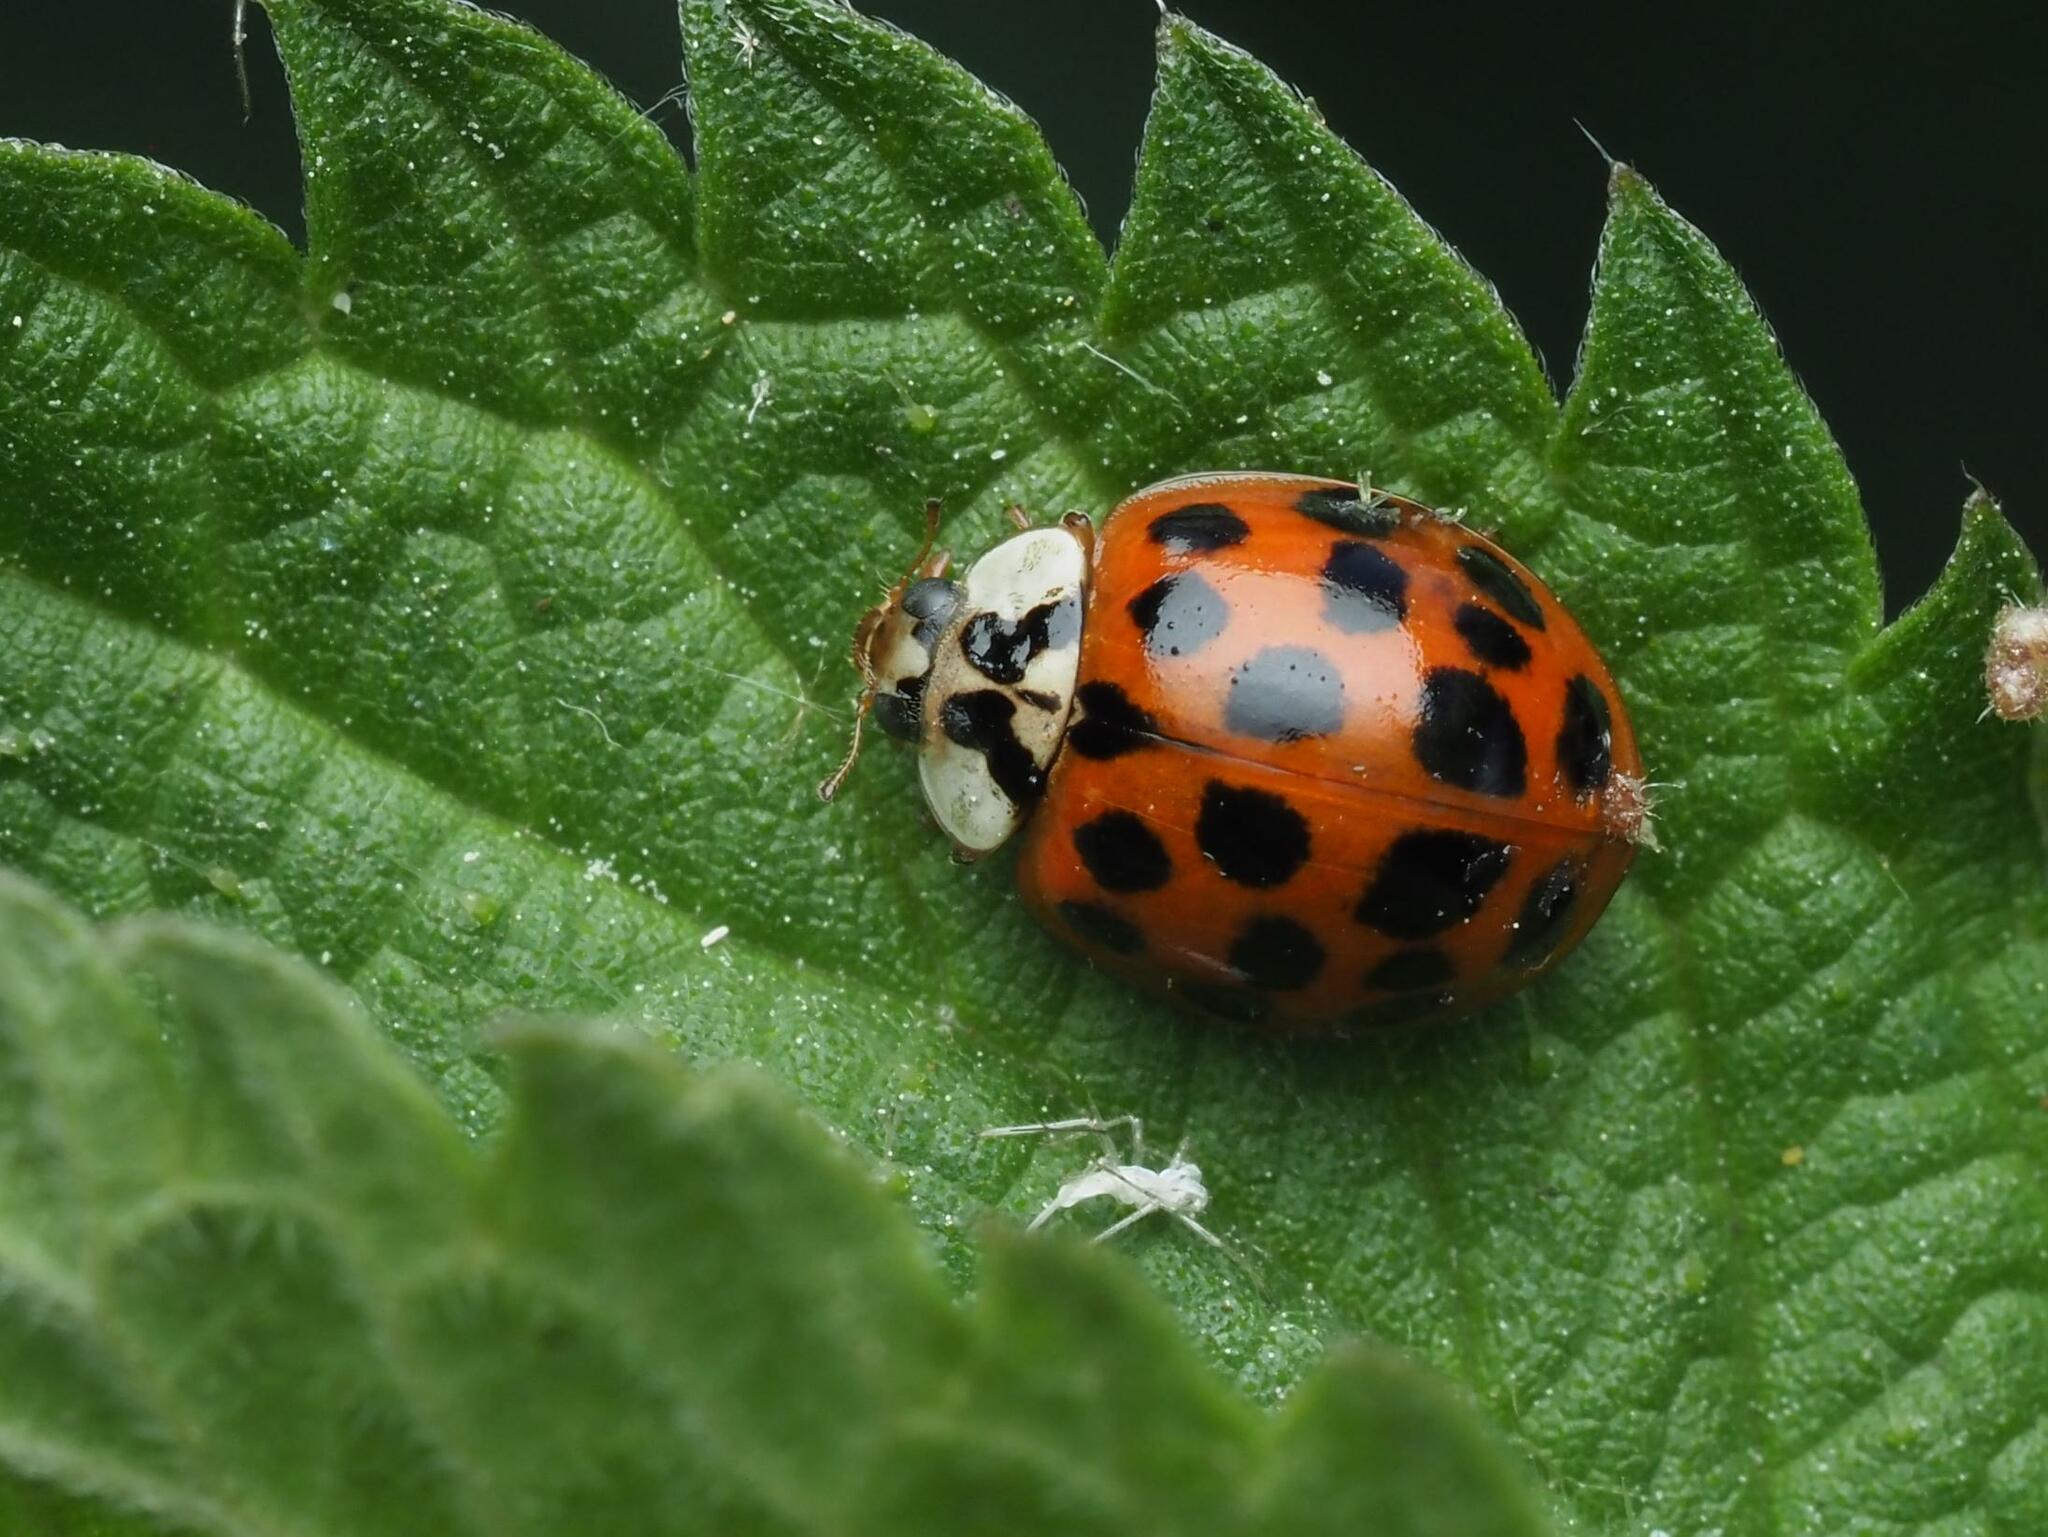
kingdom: Animalia
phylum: Arthropoda
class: Insecta
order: Coleoptera
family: Coccinellidae
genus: Harmonia
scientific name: Harmonia axyridis
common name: Harlequin ladybird
